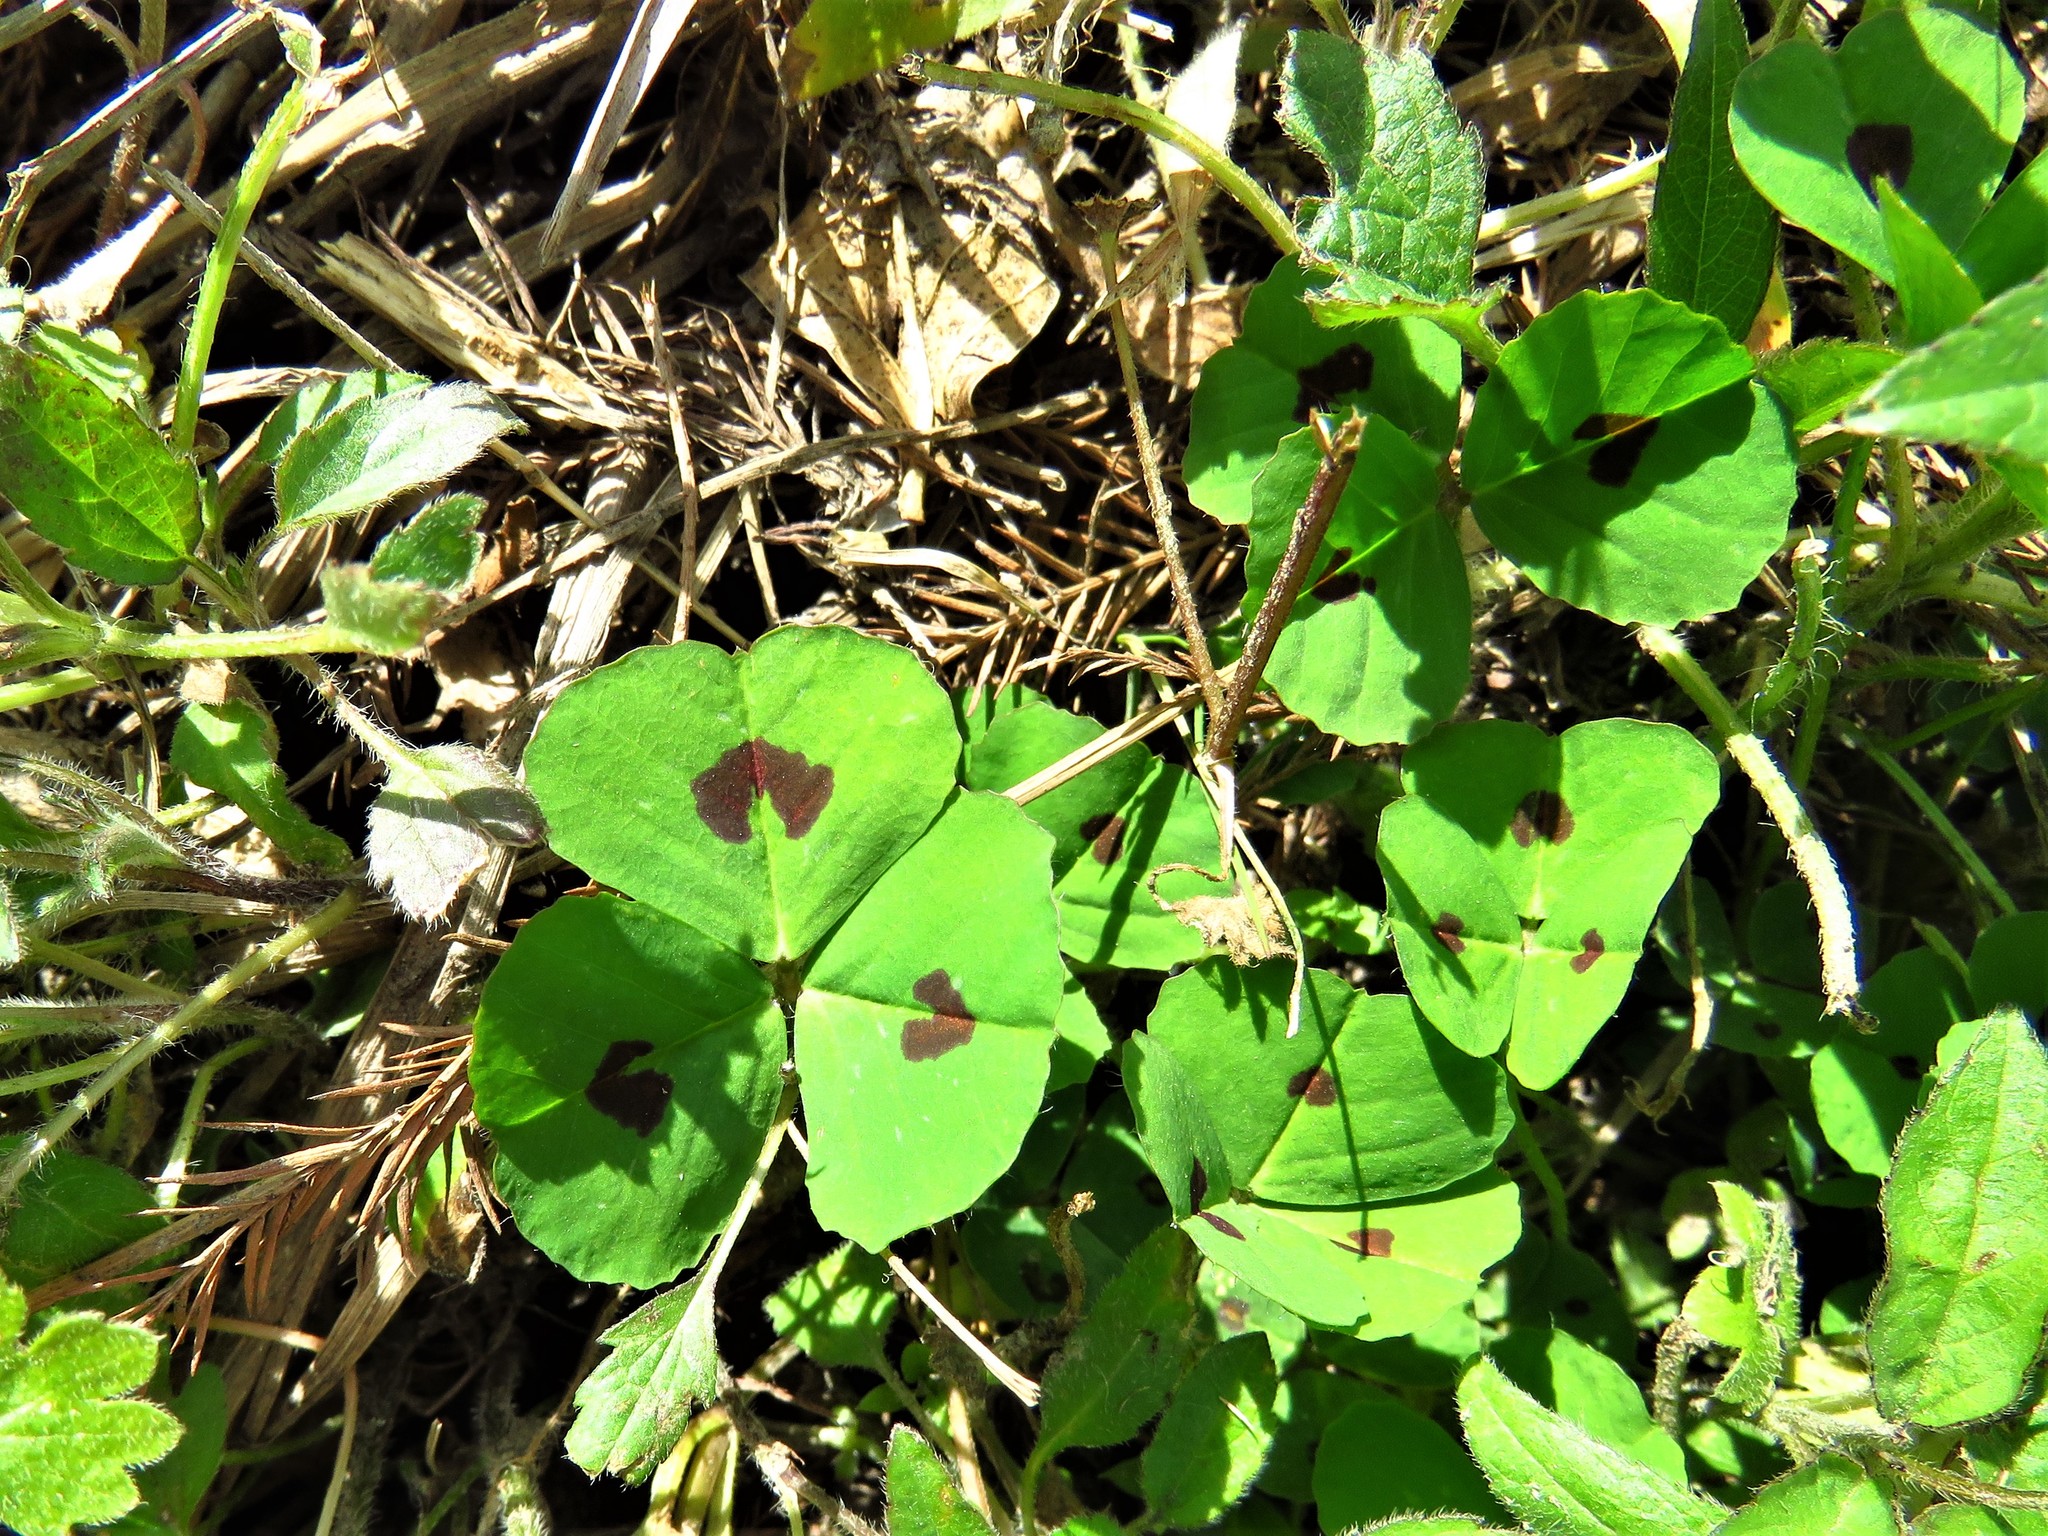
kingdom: Plantae
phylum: Tracheophyta
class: Magnoliopsida
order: Fabales
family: Fabaceae
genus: Medicago
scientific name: Medicago arabica
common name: Spotted medick
